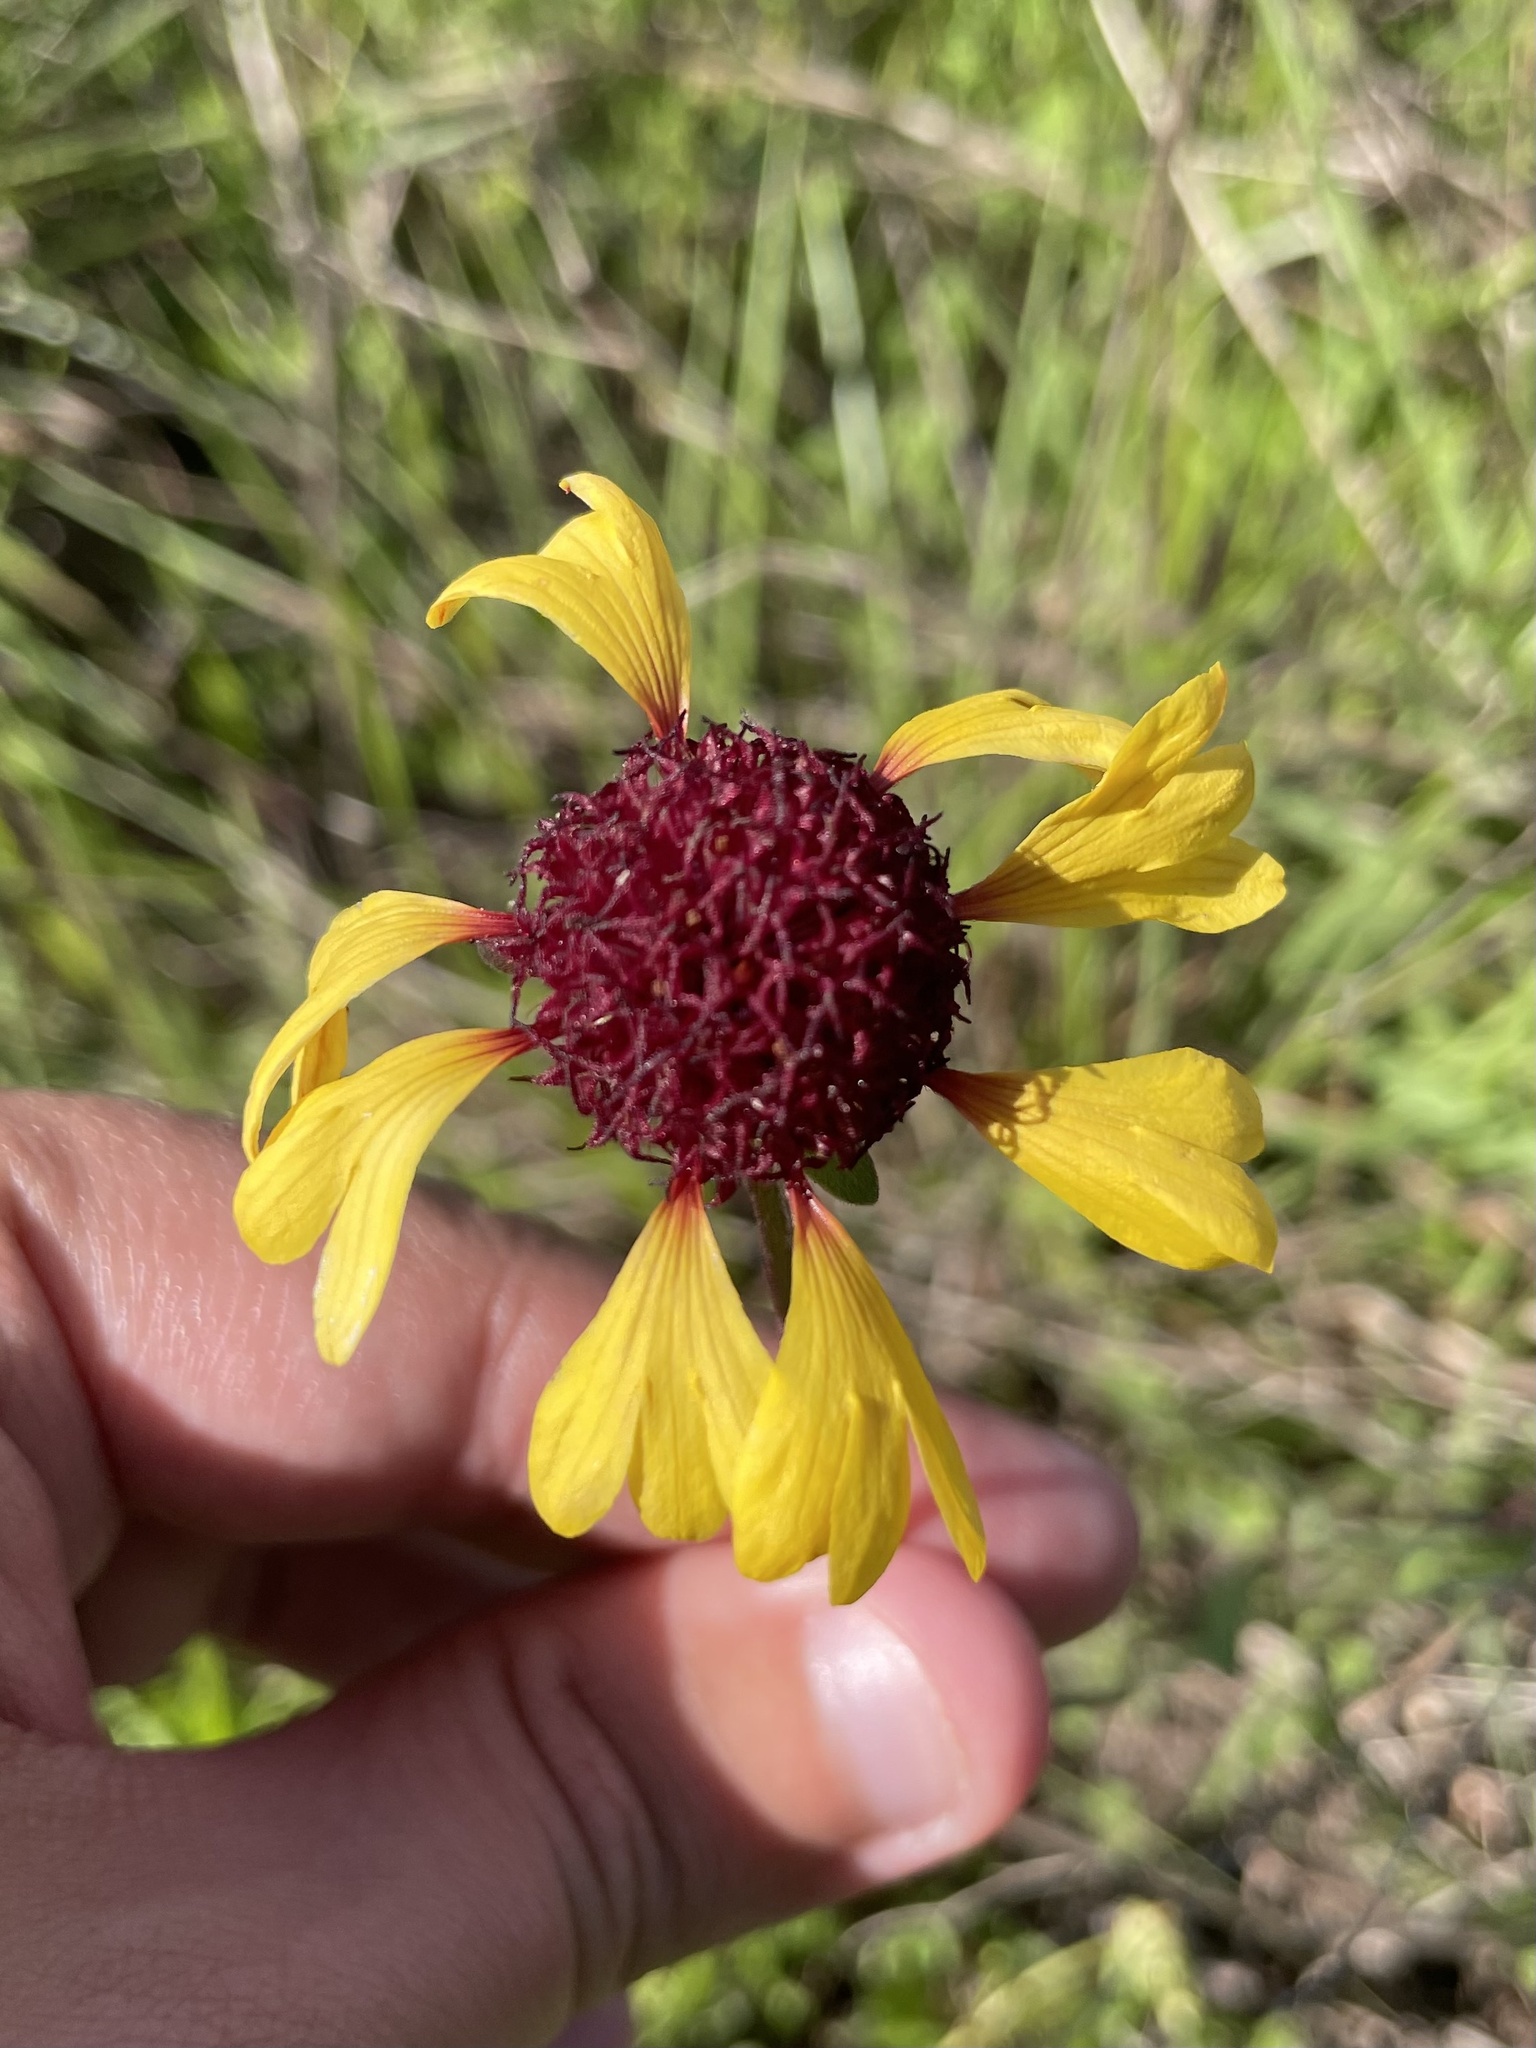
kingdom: Plantae
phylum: Tracheophyta
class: Magnoliopsida
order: Asterales
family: Asteraceae
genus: Gaillardia
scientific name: Gaillardia aestivalis
